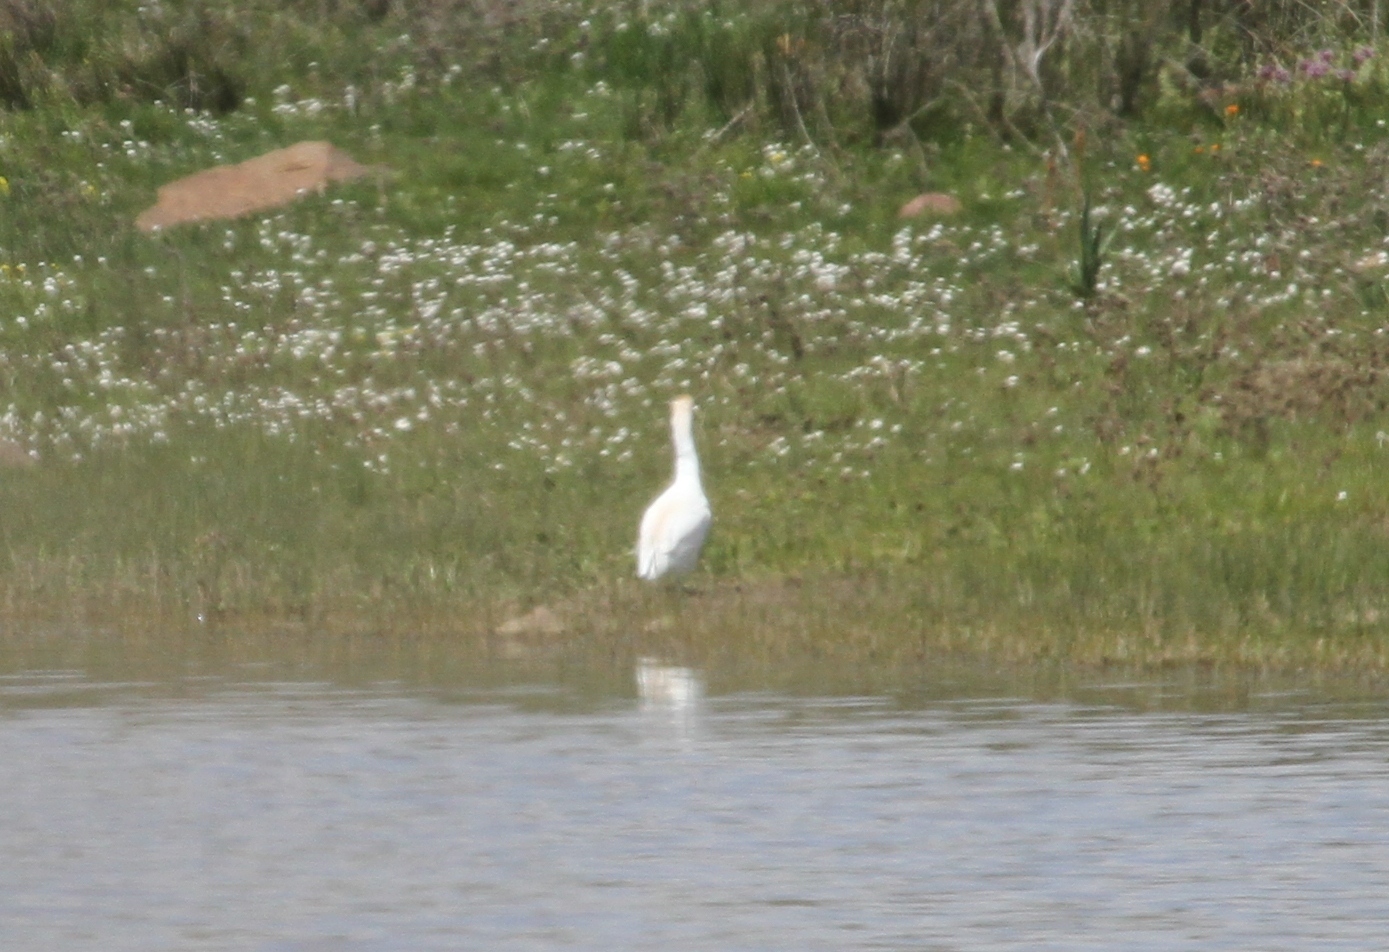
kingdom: Animalia
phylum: Chordata
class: Aves
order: Pelecaniformes
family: Ardeidae
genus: Bubulcus
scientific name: Bubulcus ibis
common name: Cattle egret
